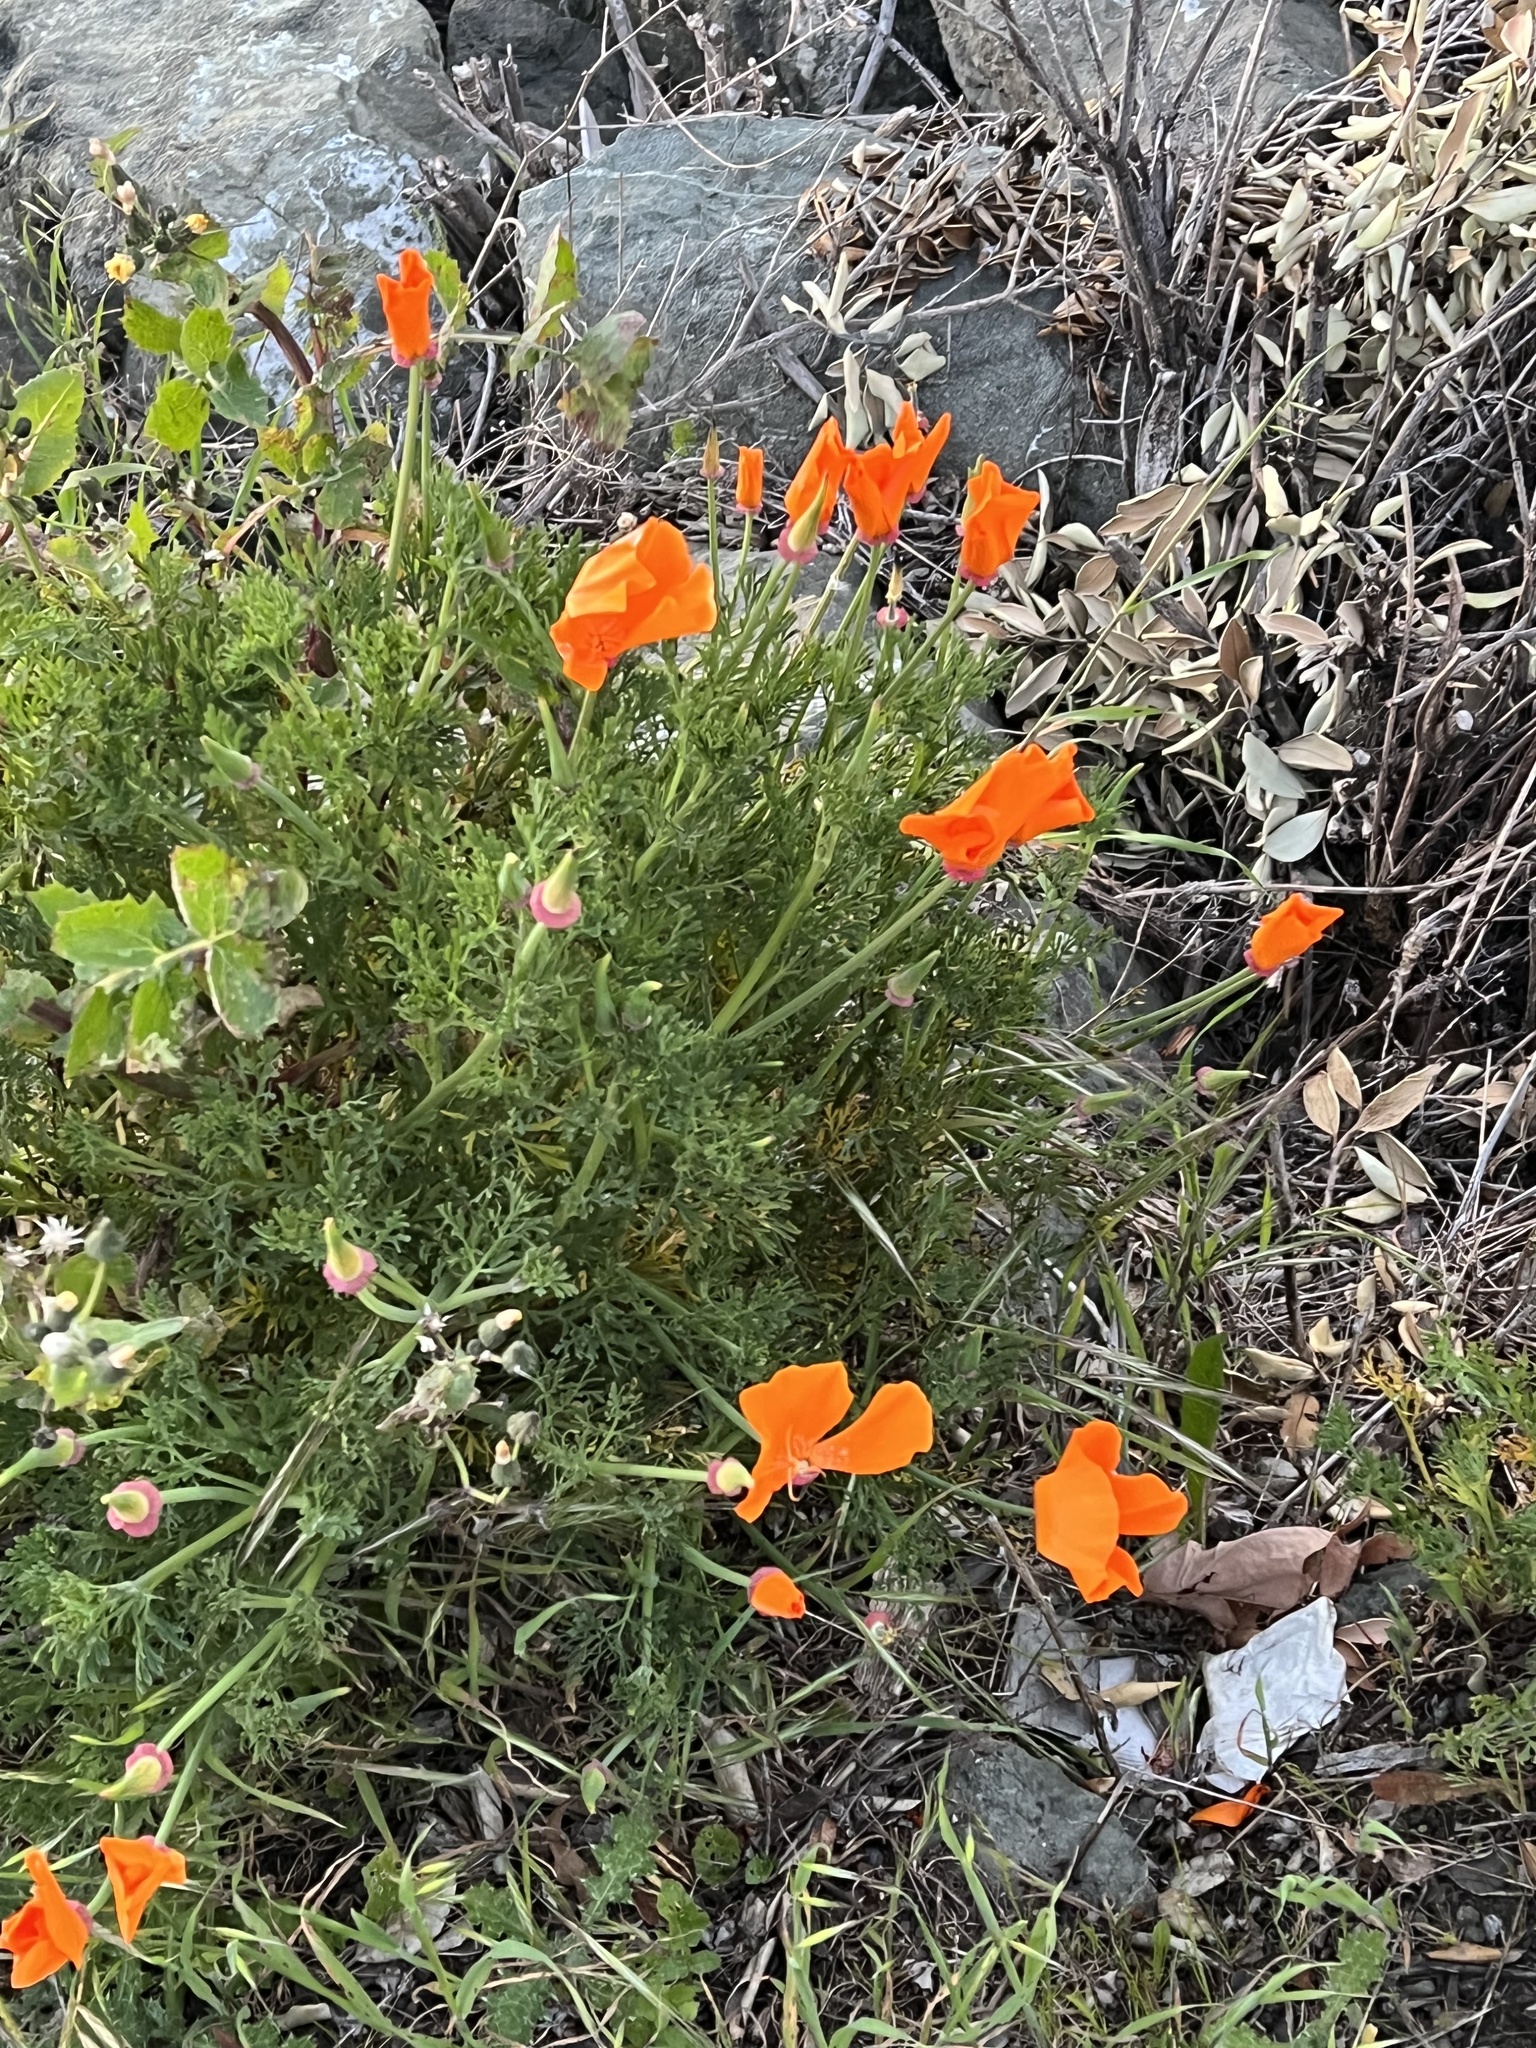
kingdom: Plantae
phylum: Tracheophyta
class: Magnoliopsida
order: Ranunculales
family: Papaveraceae
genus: Eschscholzia
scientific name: Eschscholzia californica
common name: California poppy
